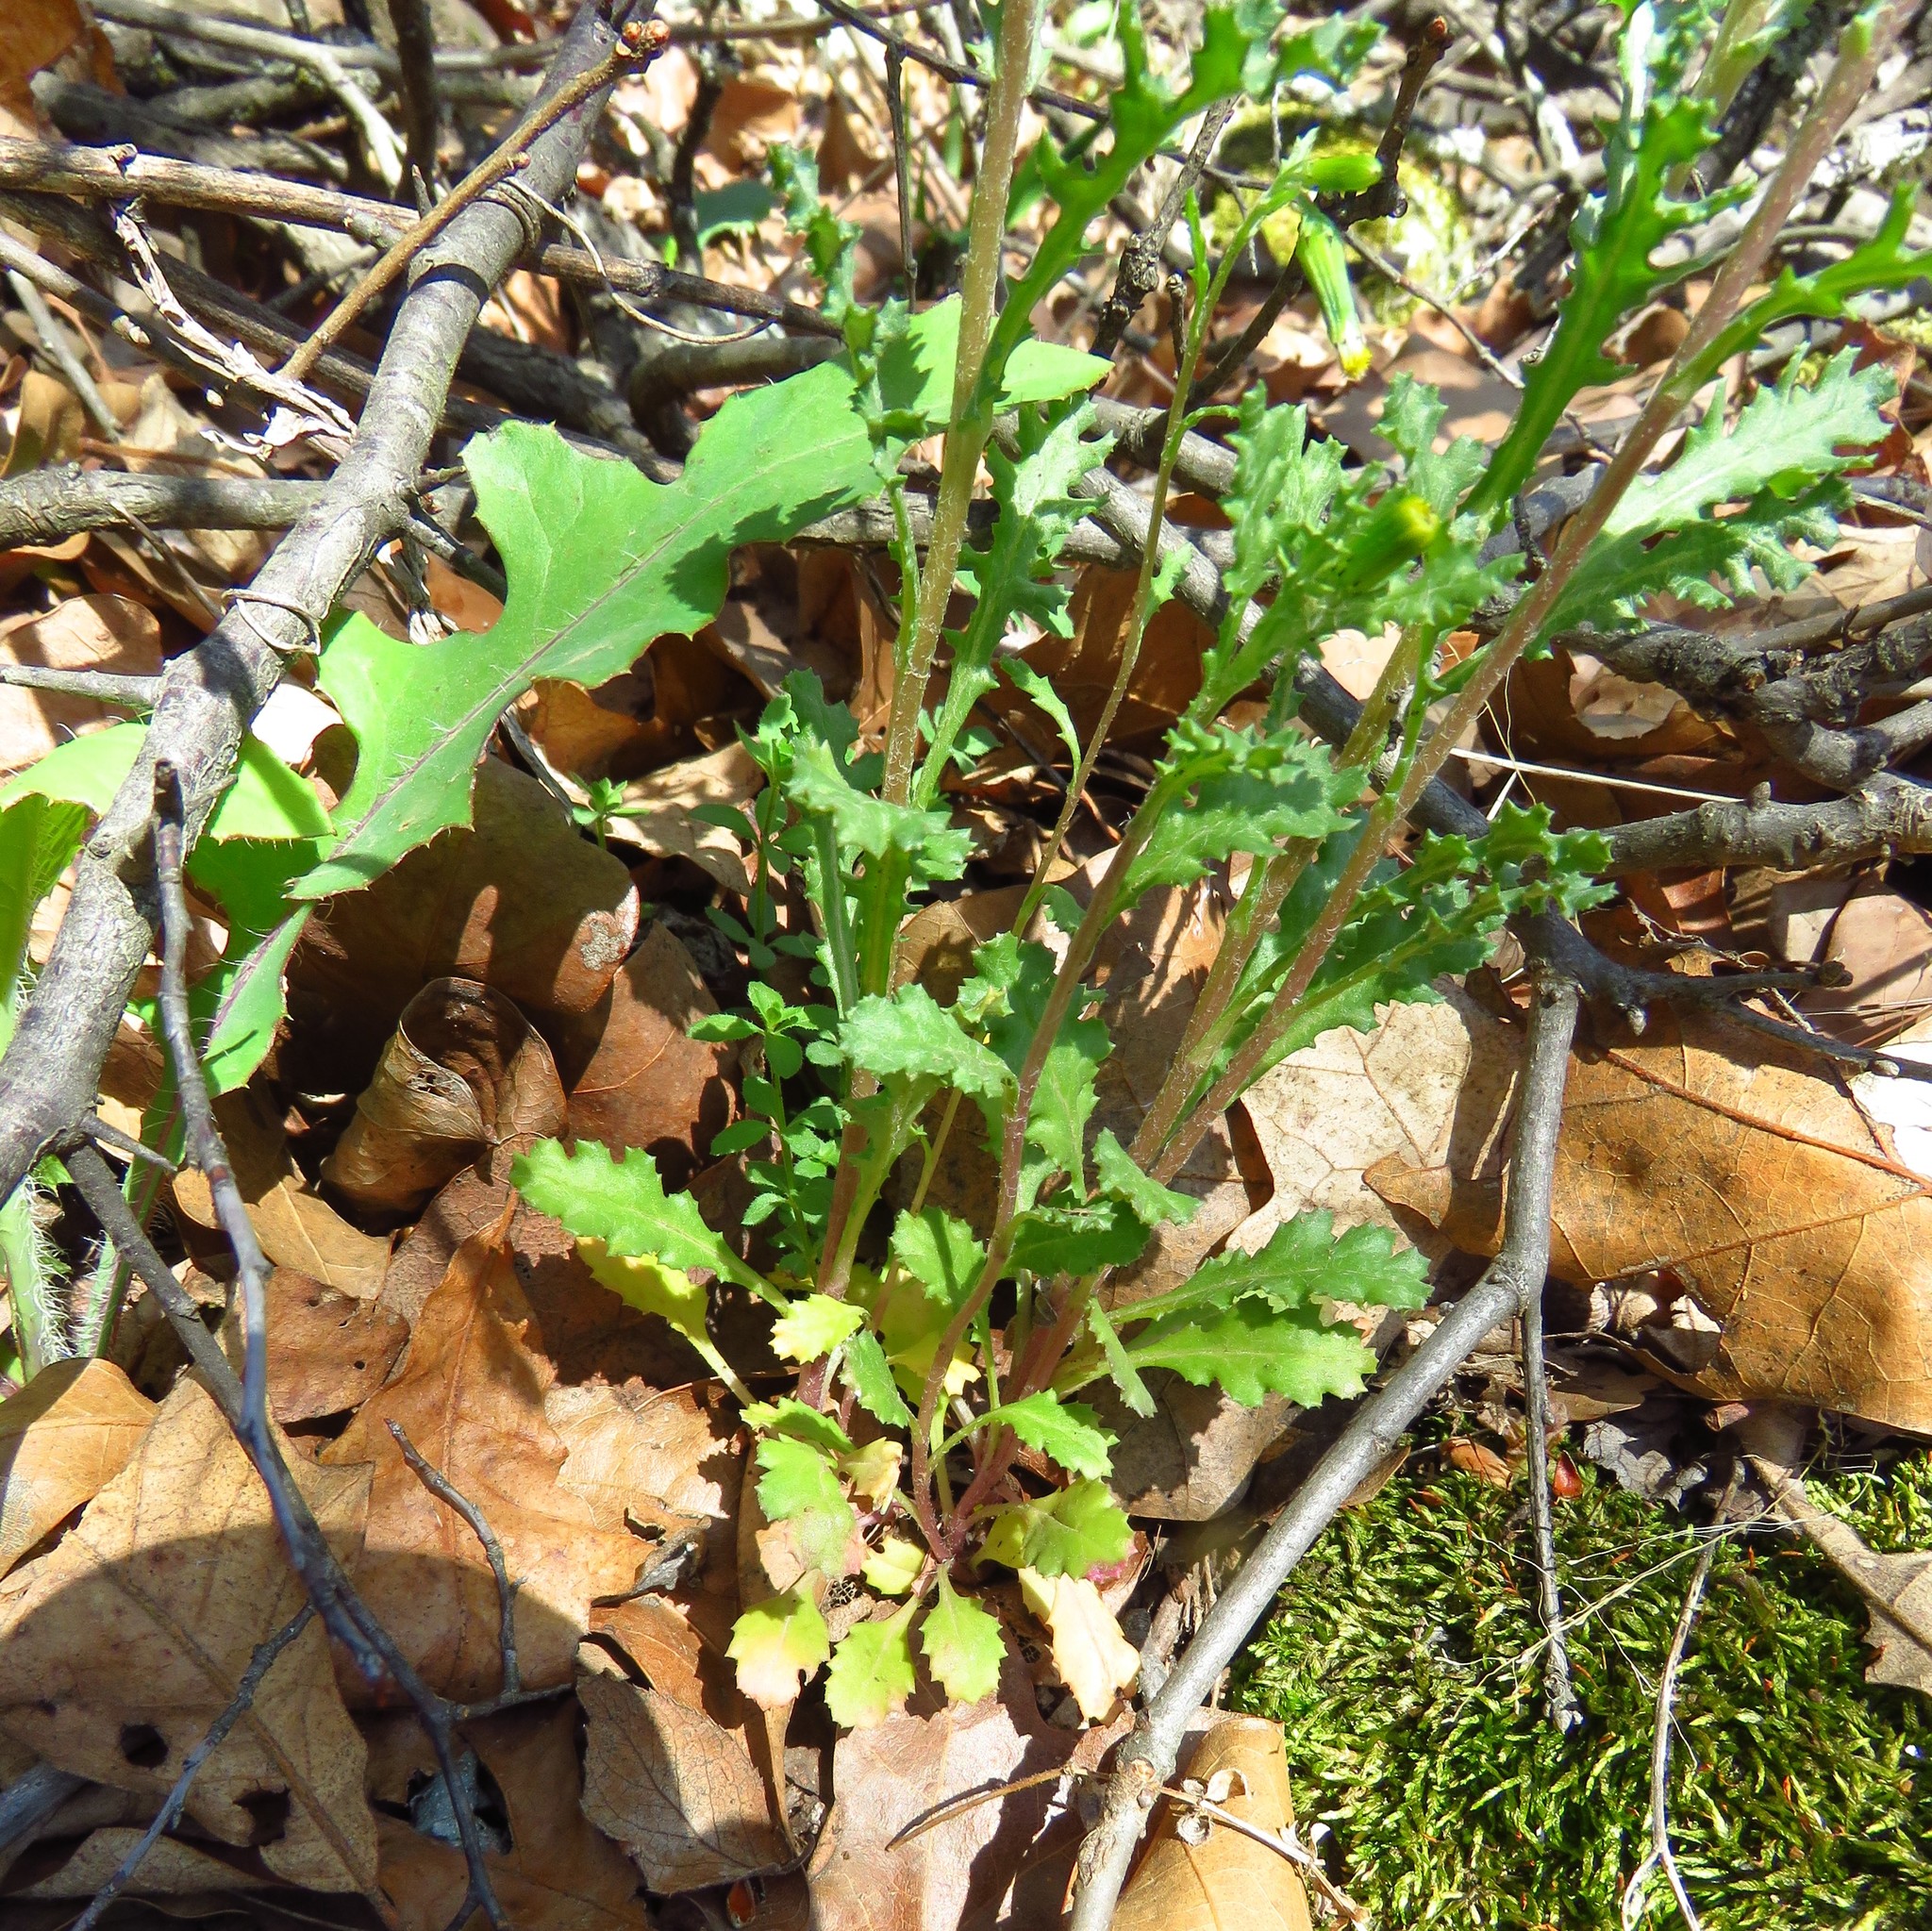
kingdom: Plantae
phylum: Tracheophyta
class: Magnoliopsida
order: Asterales
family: Asteraceae
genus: Senecio
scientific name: Senecio vulgaris
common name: Old-man-in-the-spring
